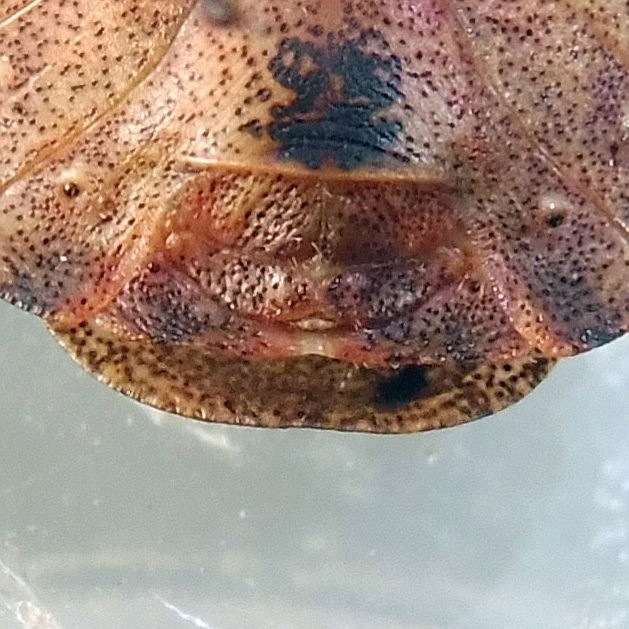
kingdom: Animalia
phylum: Arthropoda
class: Insecta
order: Hemiptera
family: Scutelleridae
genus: Eurygaster
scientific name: Eurygaster testudinaria
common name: Tortoise bug
